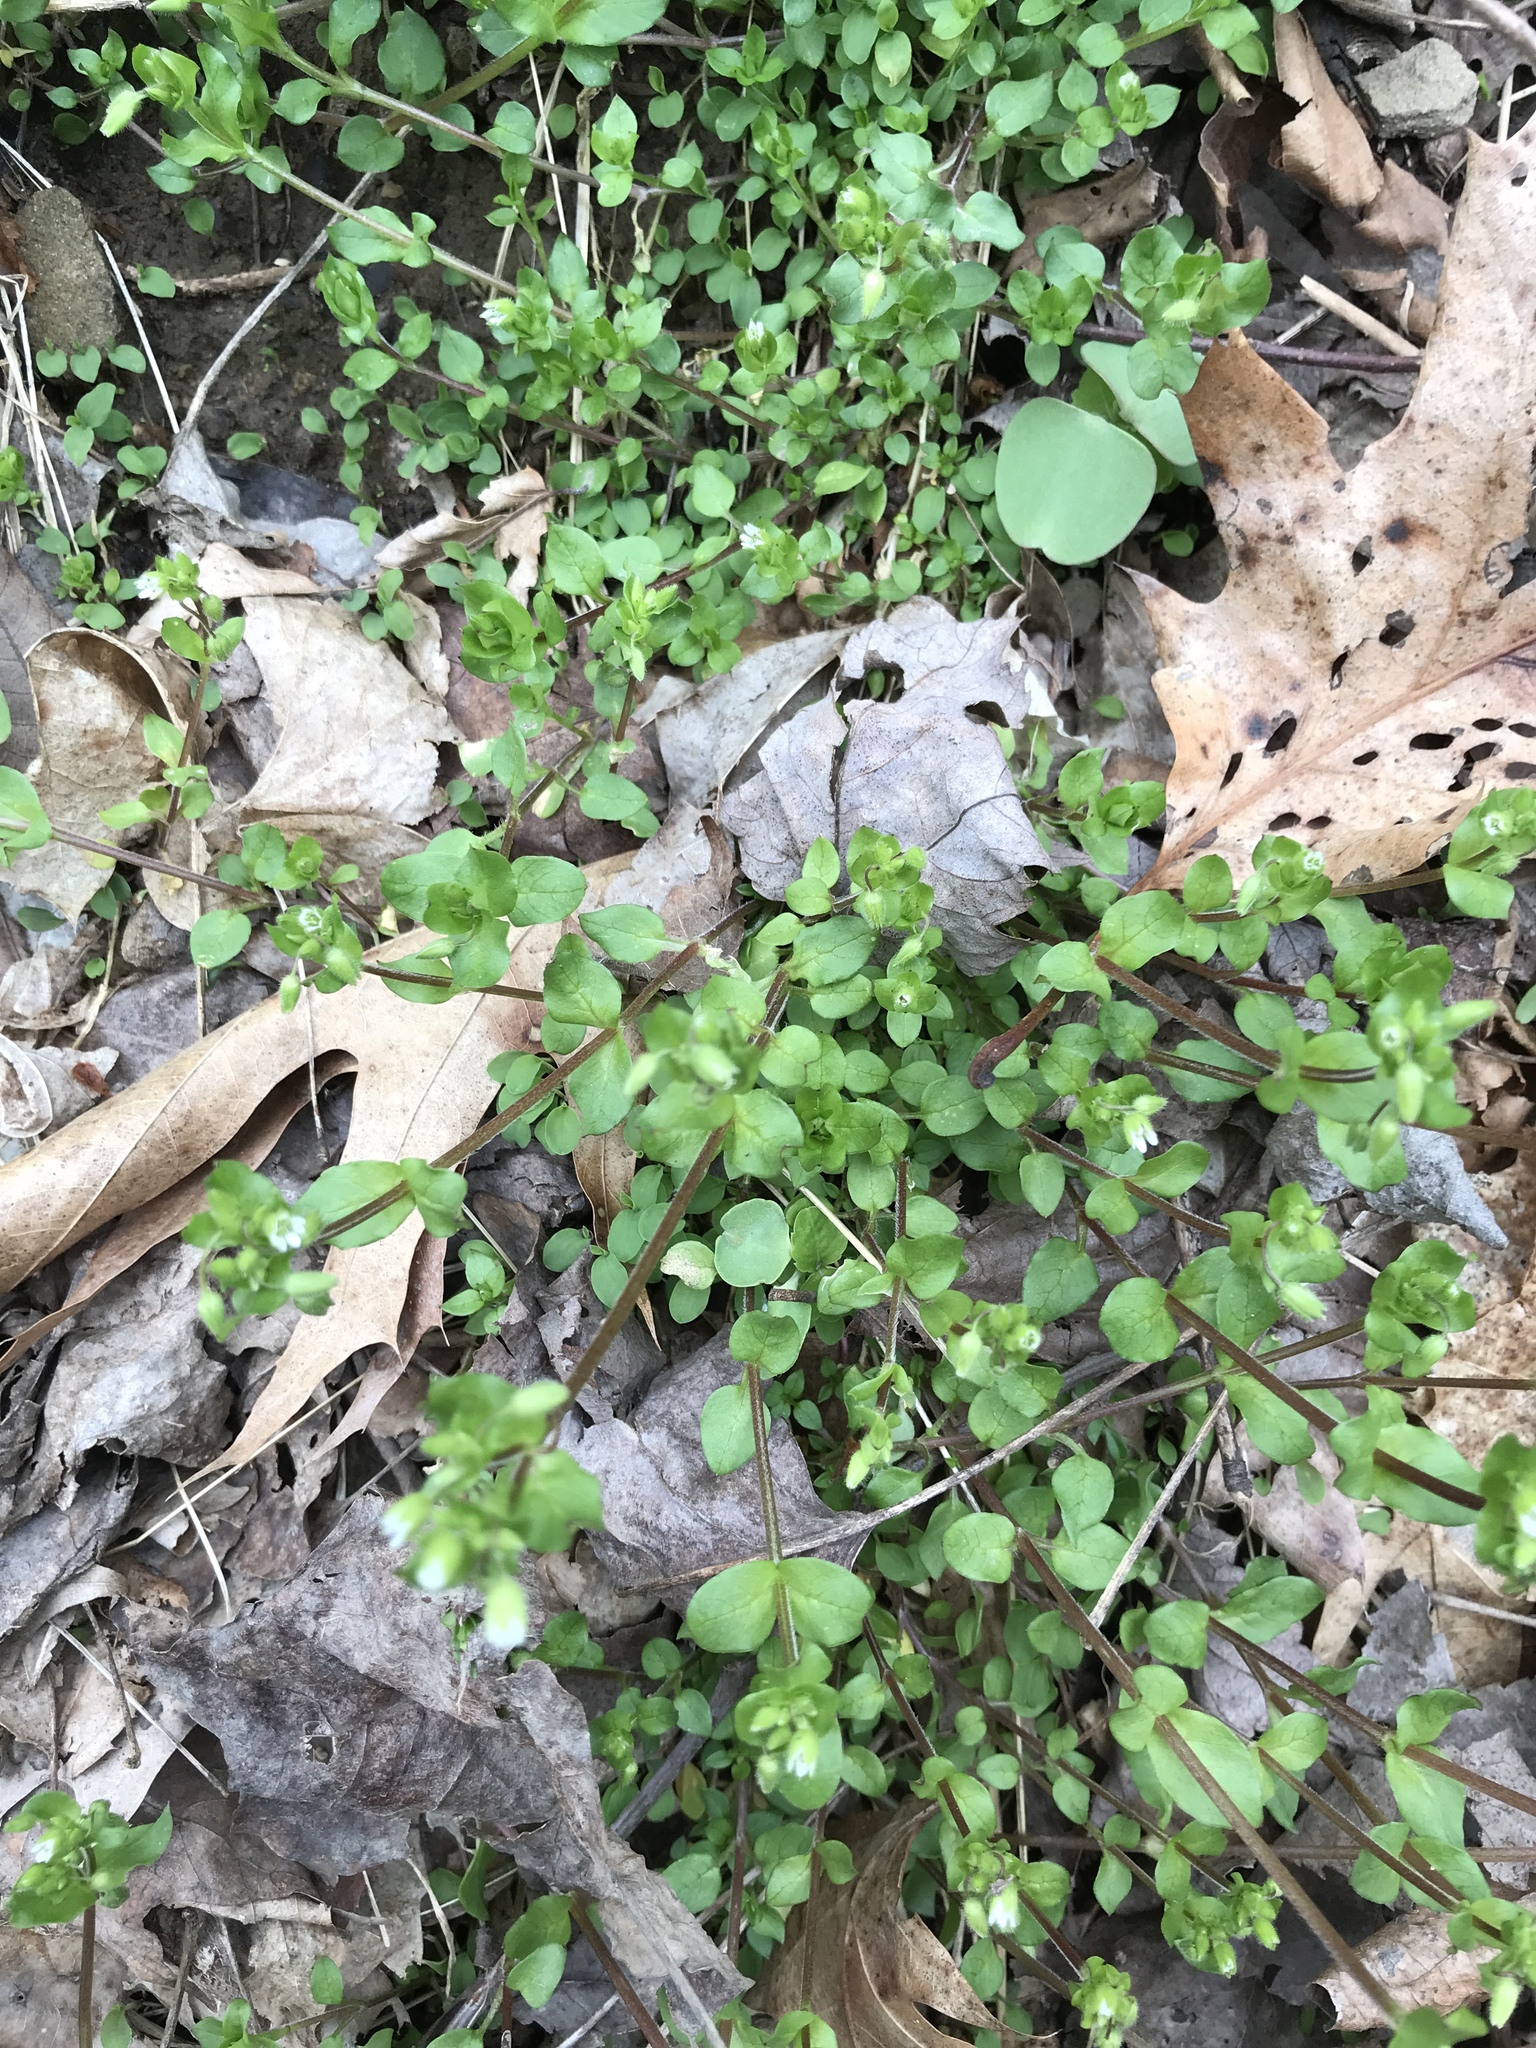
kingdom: Plantae
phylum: Tracheophyta
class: Magnoliopsida
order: Caryophyllales
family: Caryophyllaceae
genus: Stellaria
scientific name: Stellaria media
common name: Common chickweed
